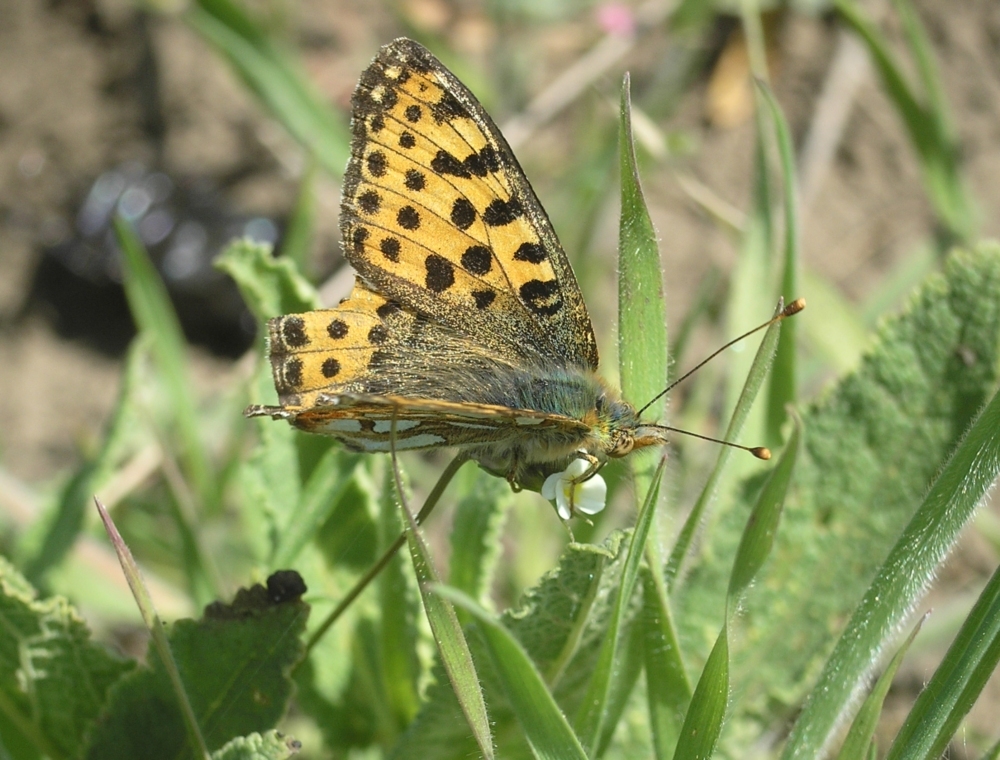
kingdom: Animalia
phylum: Arthropoda
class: Insecta
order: Lepidoptera
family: Nymphalidae
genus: Issoria
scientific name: Issoria lathonia
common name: Queen of spain fritillary
